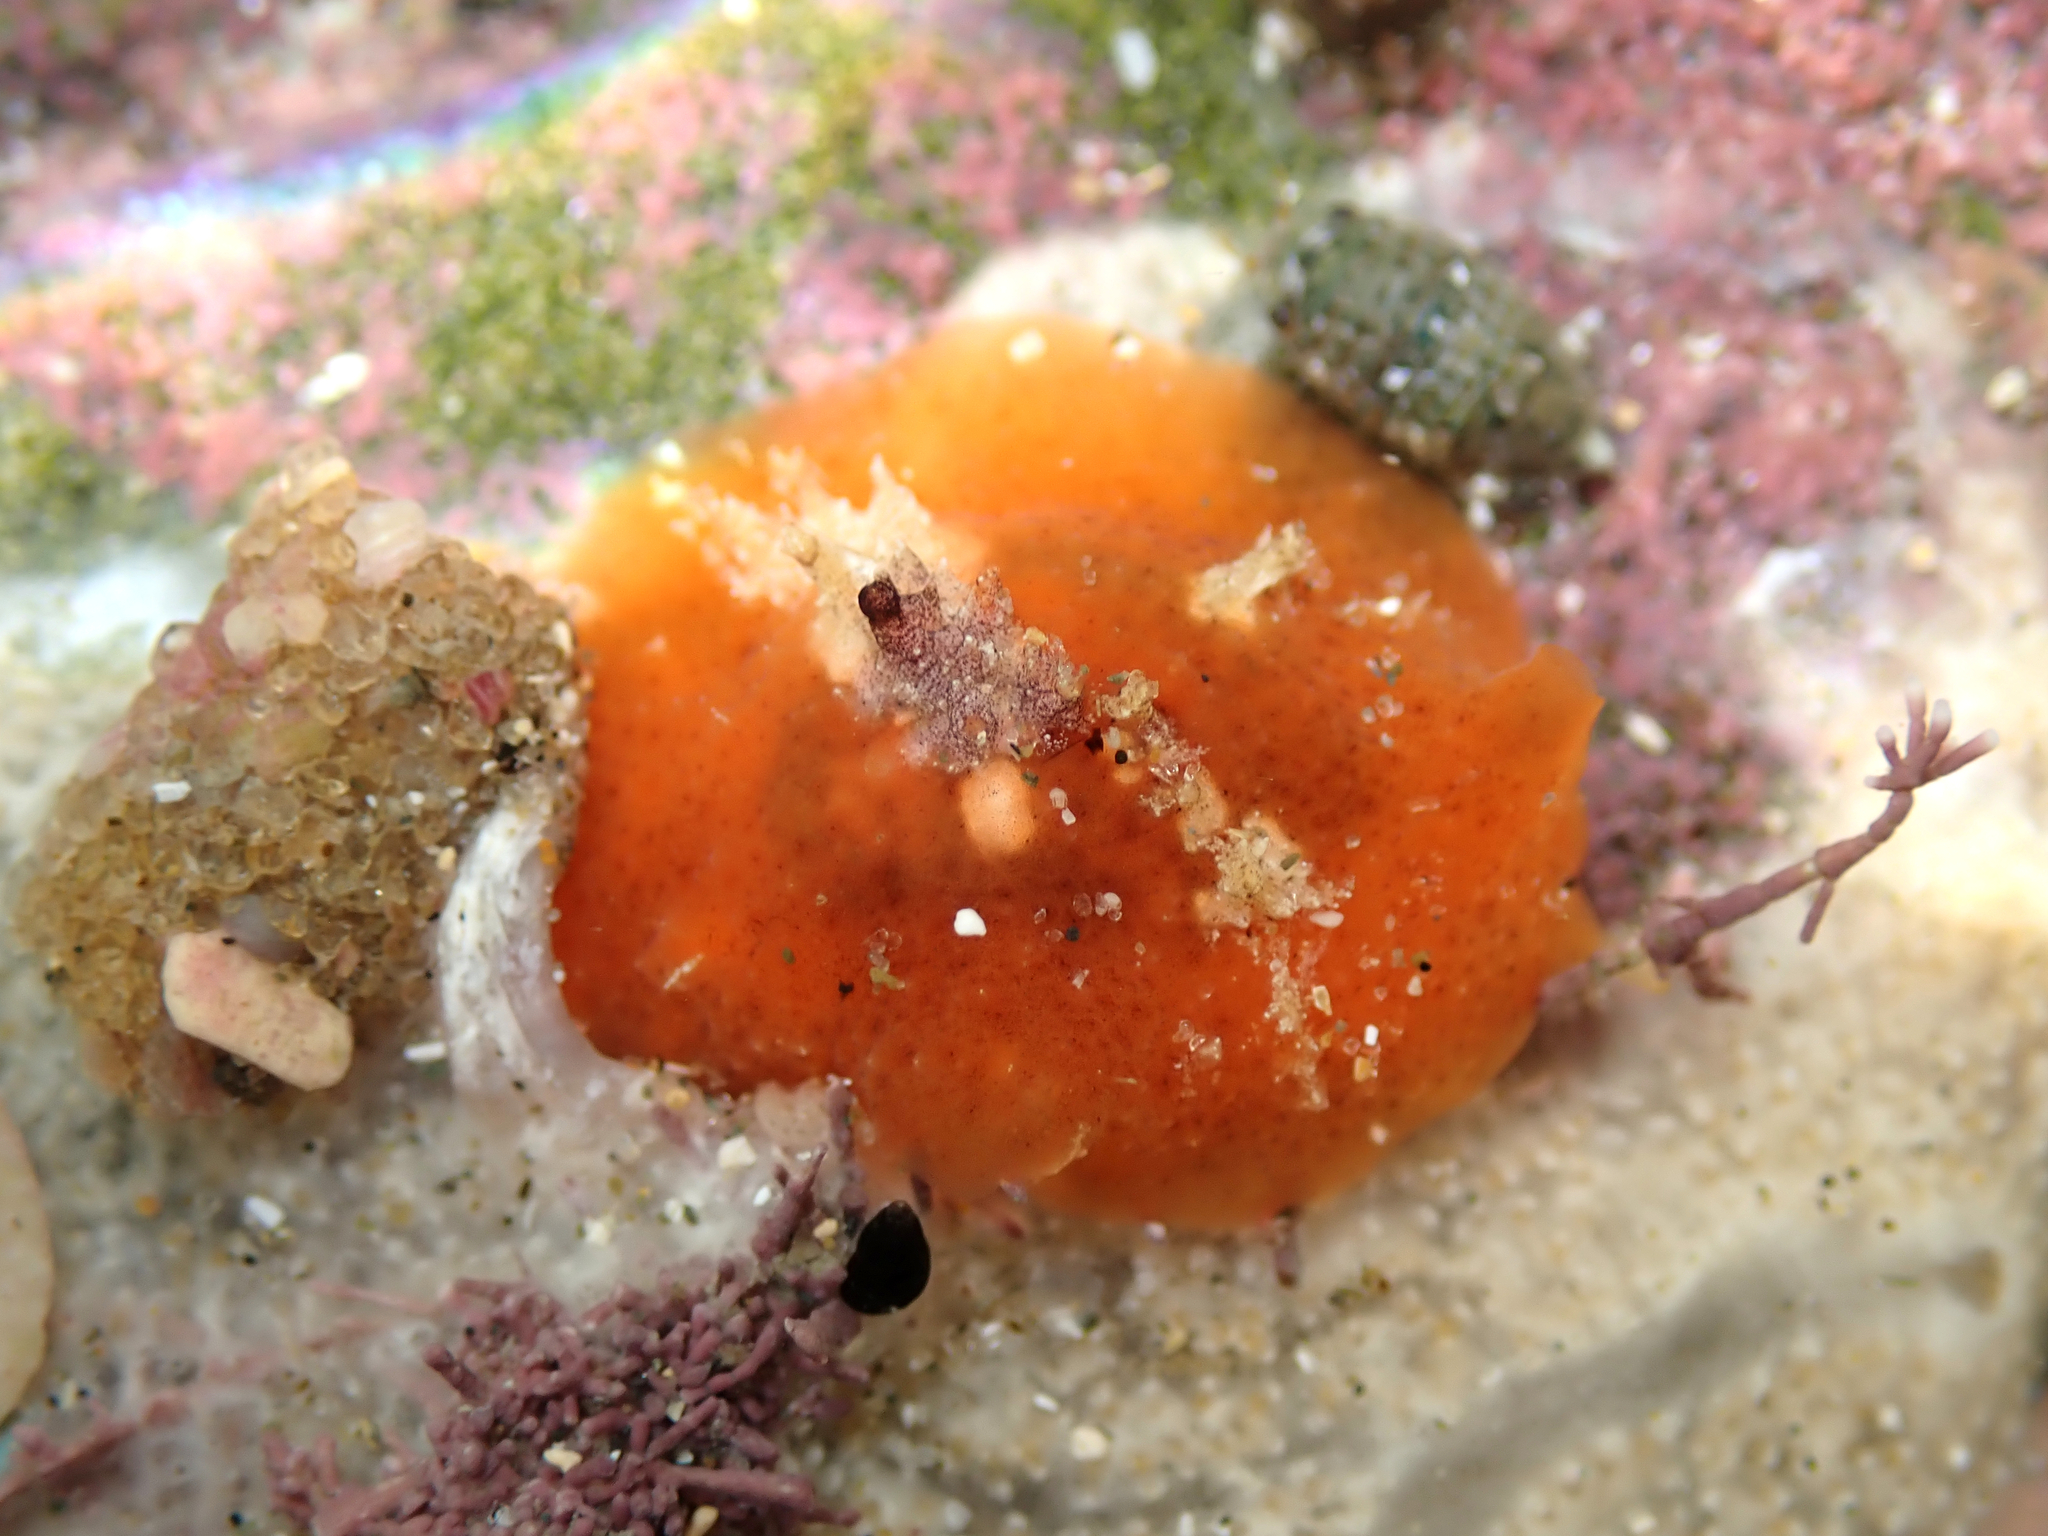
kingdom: Animalia
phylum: Mollusca
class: Gastropoda
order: Littorinimorpha
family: Velutinidae
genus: Lamellaria
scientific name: Lamellaria ophione
